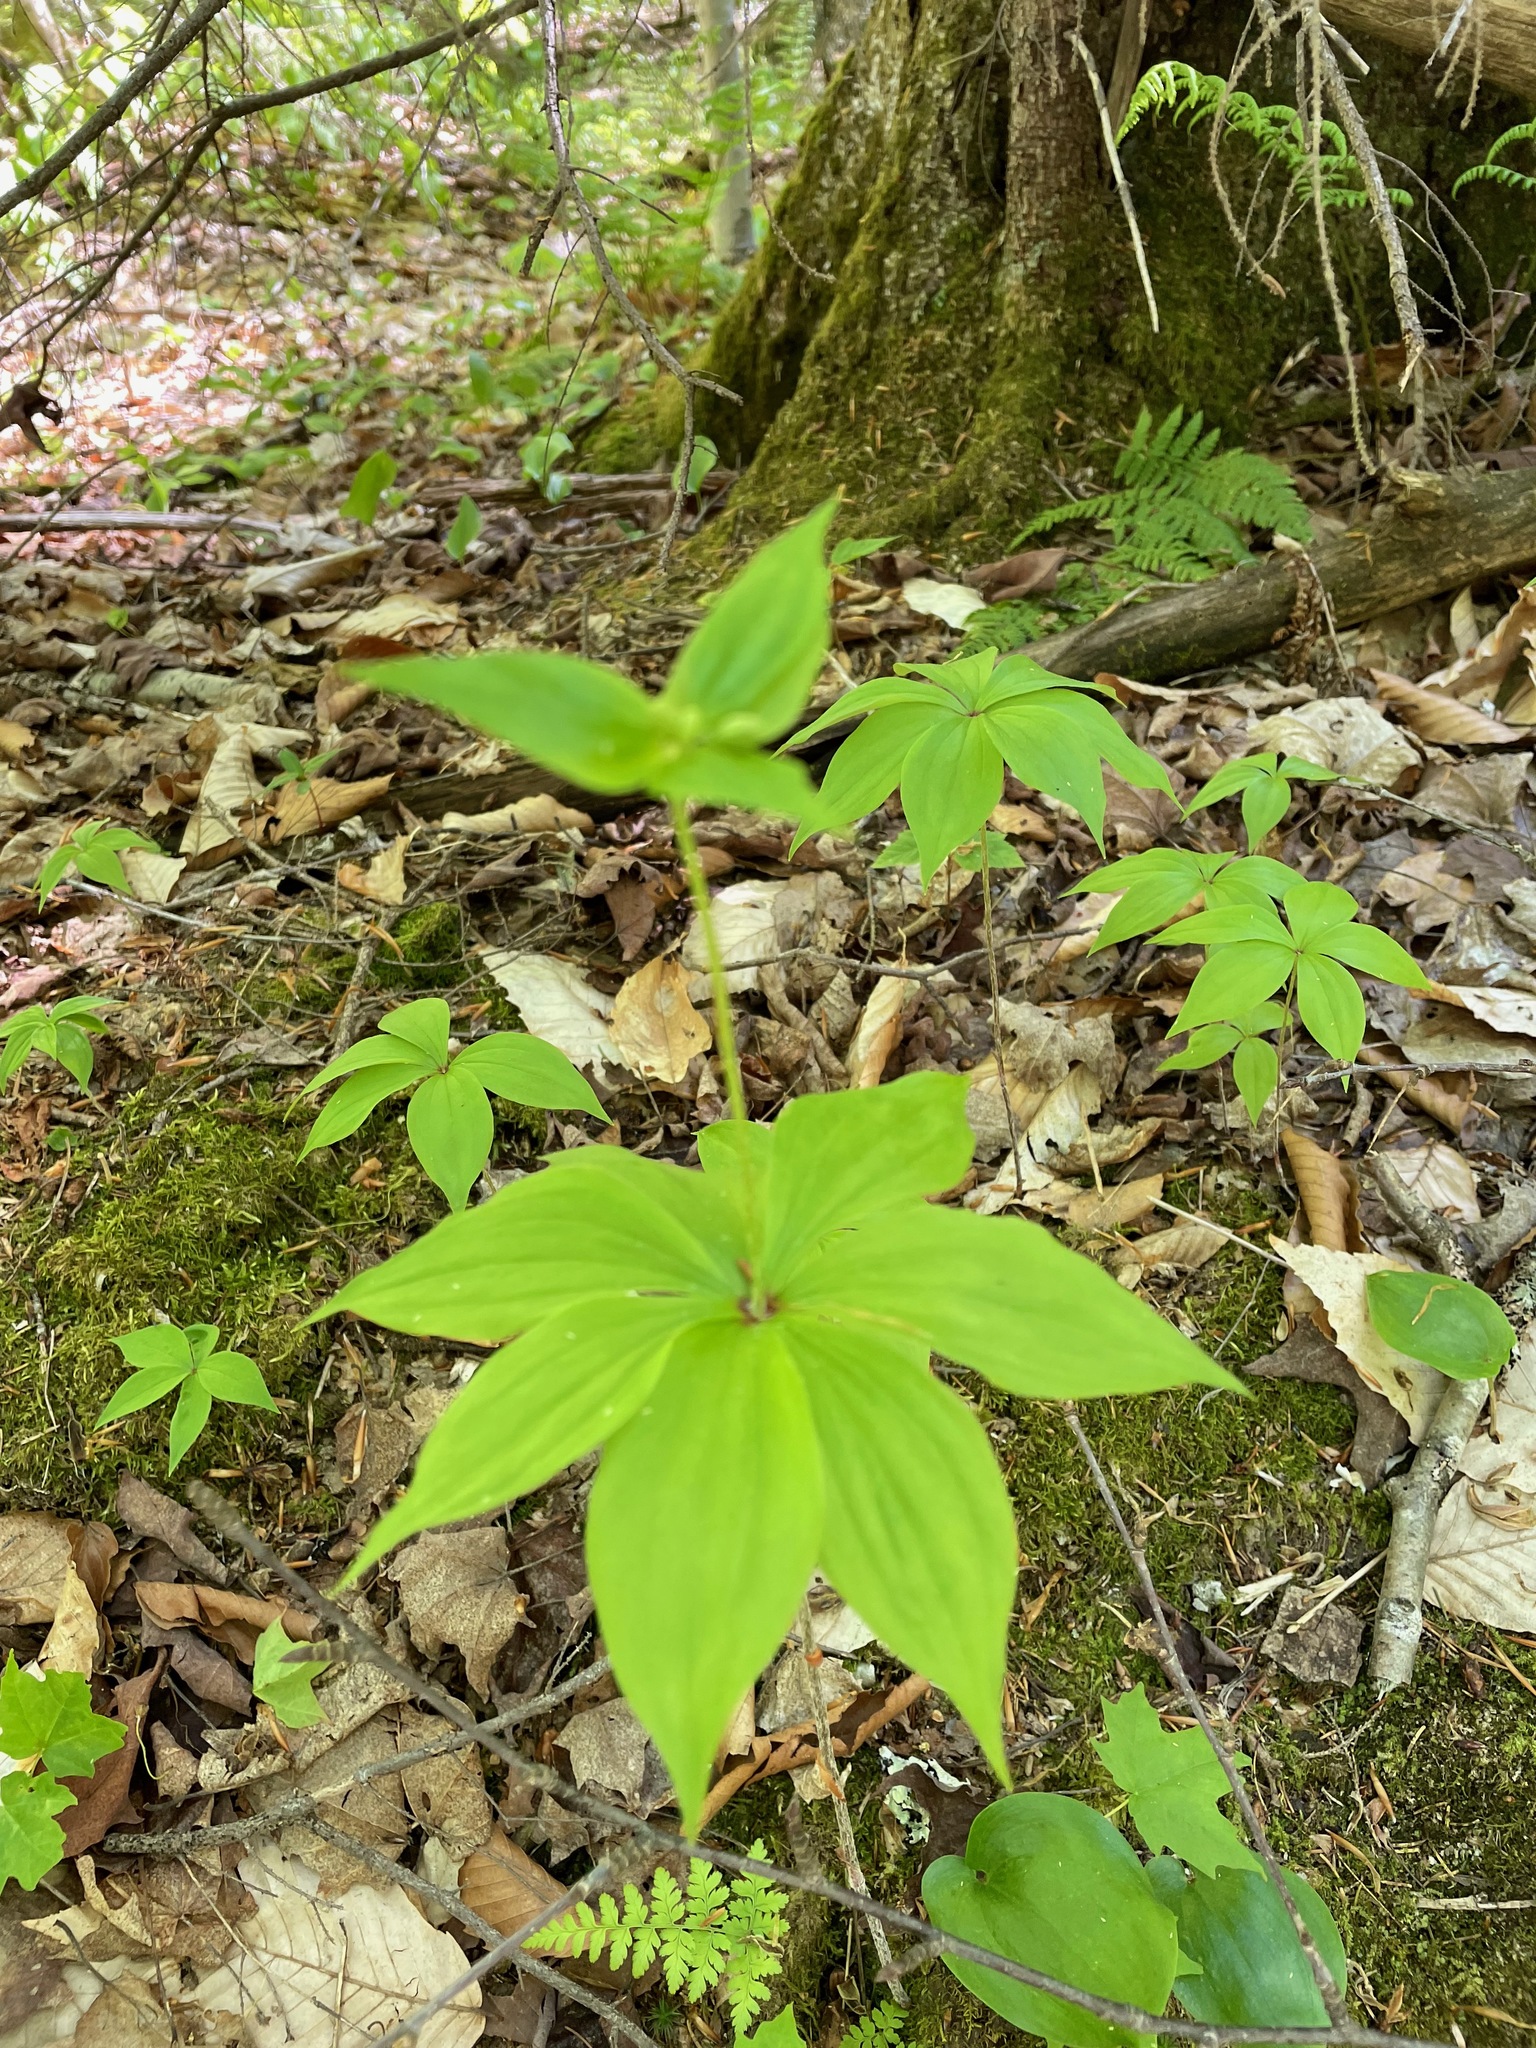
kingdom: Plantae
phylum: Tracheophyta
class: Liliopsida
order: Liliales
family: Liliaceae
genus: Medeola
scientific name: Medeola virginiana
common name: Indian cucumber-root
